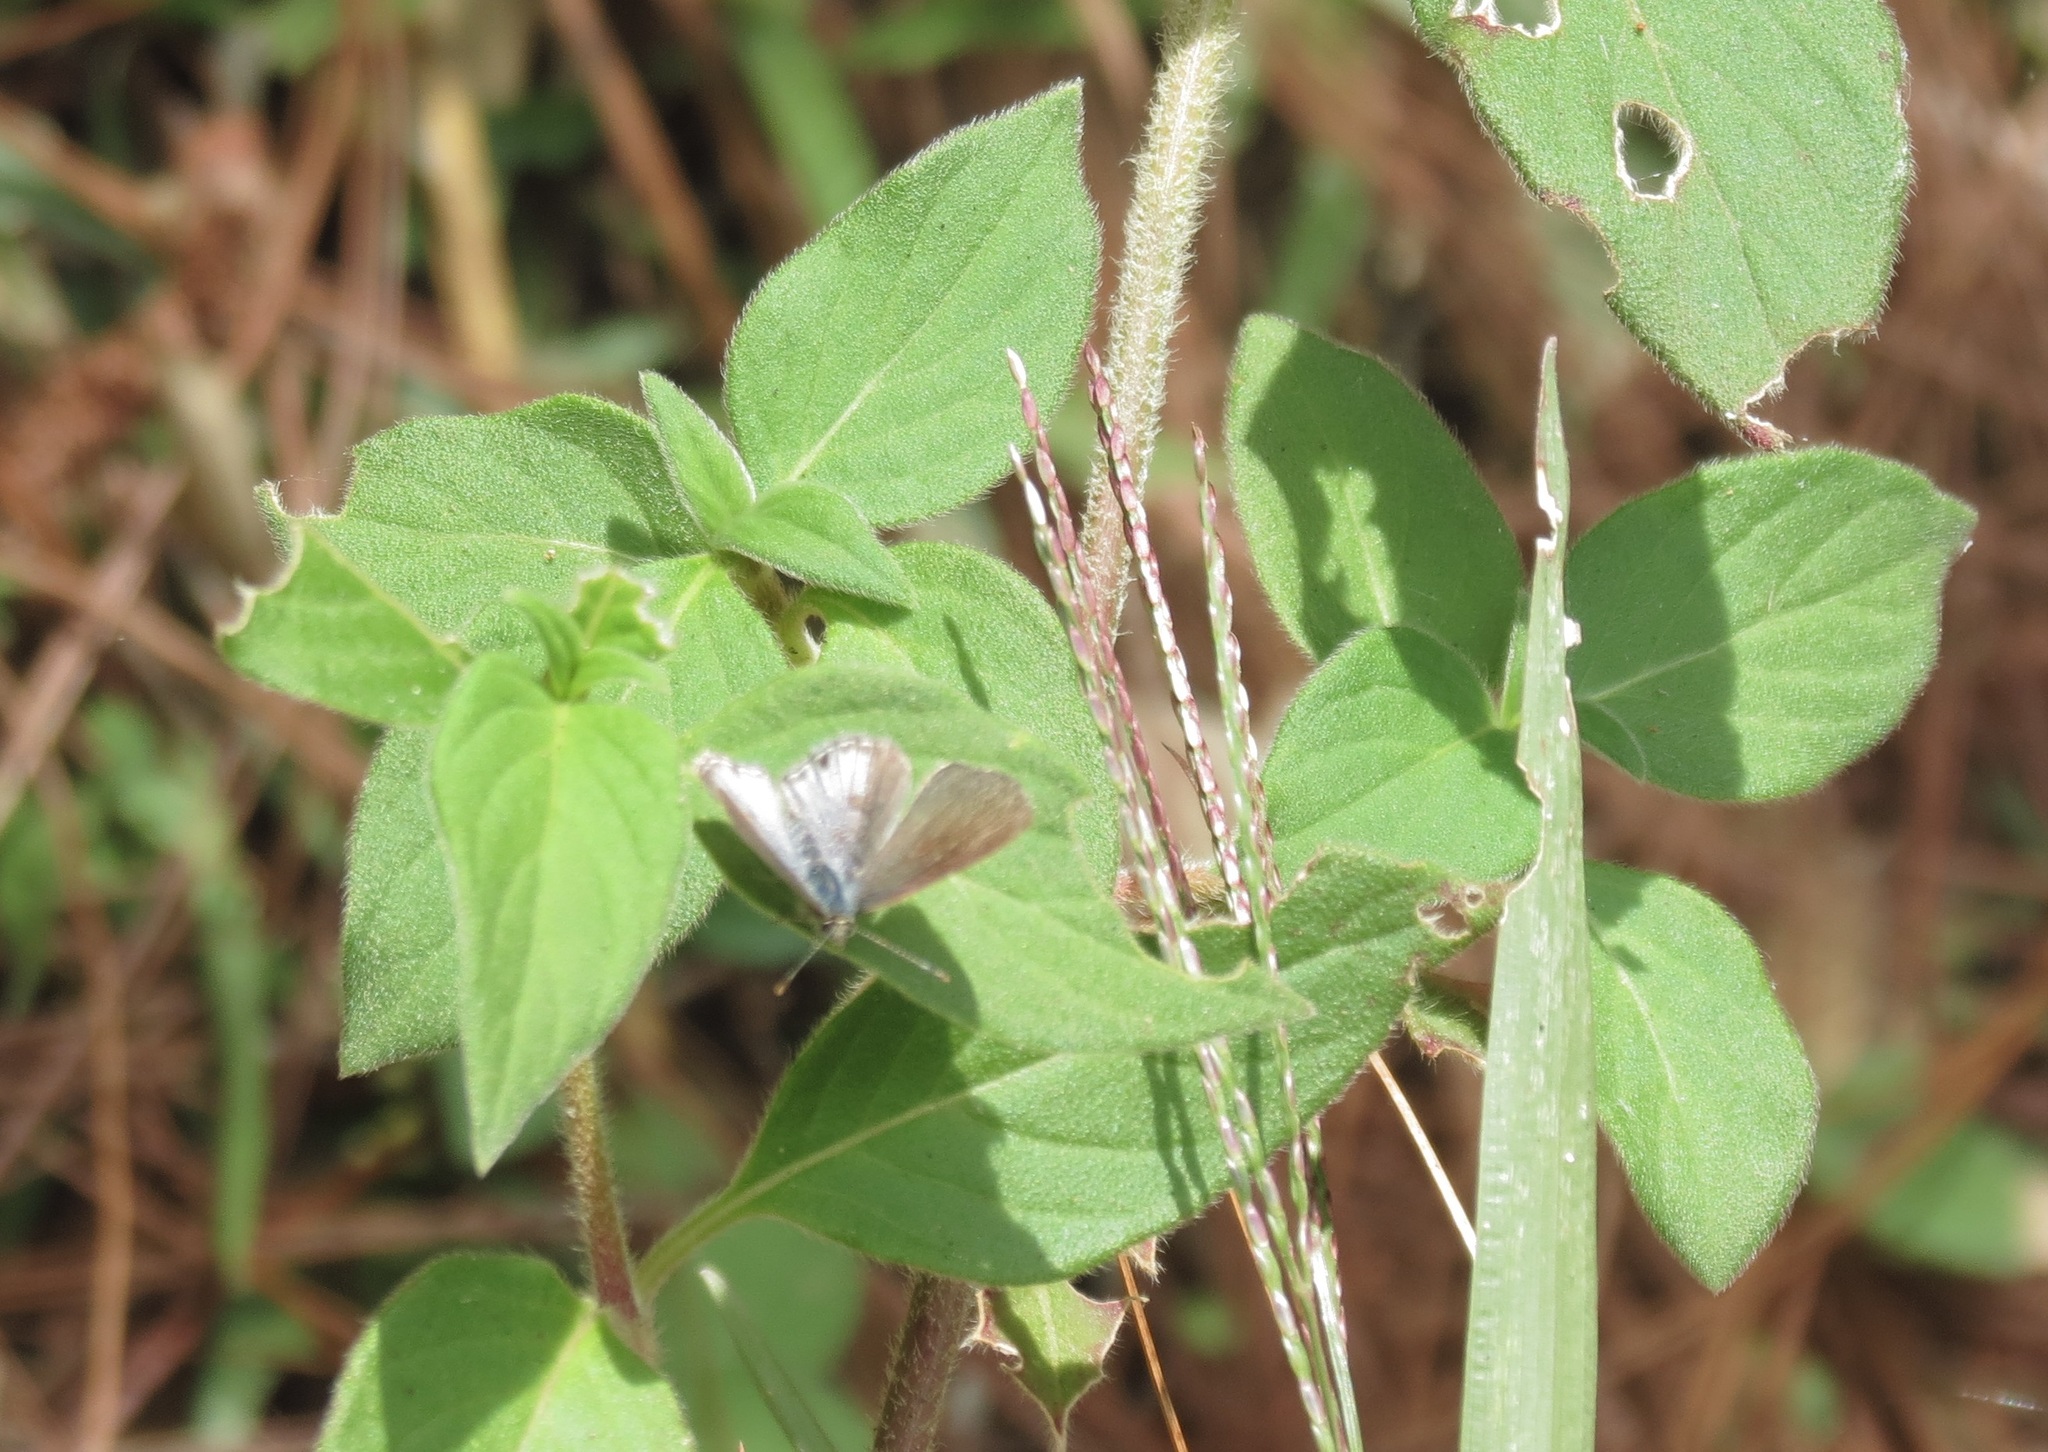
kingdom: Animalia
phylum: Arthropoda
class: Insecta
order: Lepidoptera
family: Lycaenidae
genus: Strymon
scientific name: Strymon bazochii
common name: Lantana scrub-hairstreak
